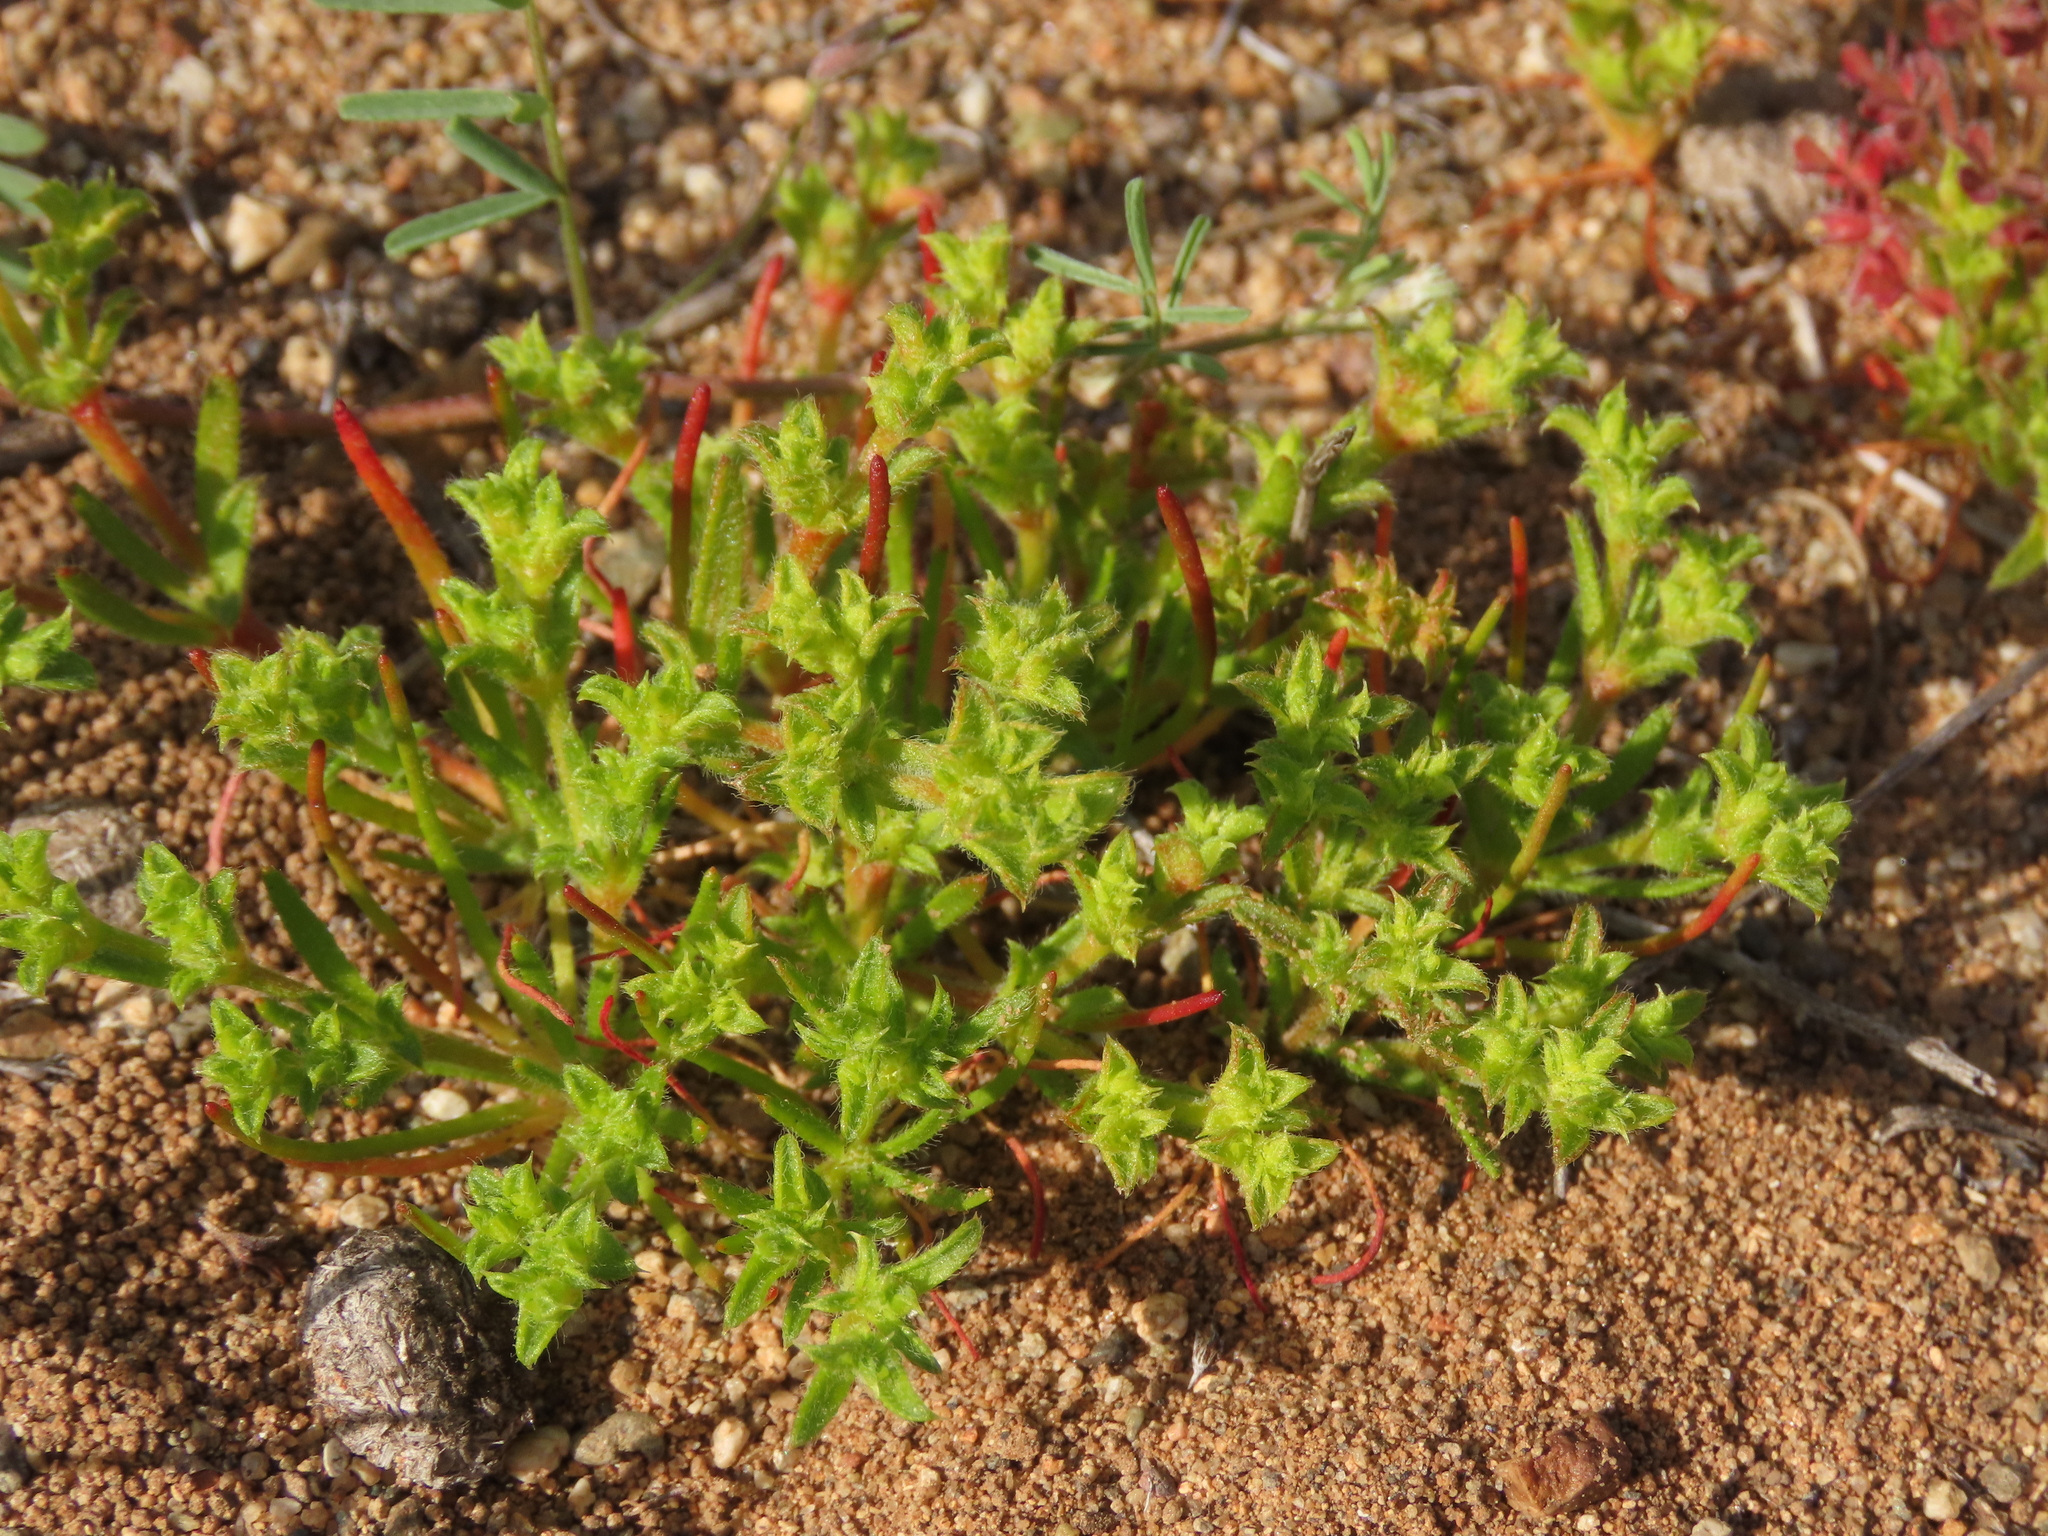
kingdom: Plantae
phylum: Tracheophyta
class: Magnoliopsida
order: Caryophyllales
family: Polygonaceae
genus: Lastarriaea
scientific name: Lastarriaea chilensis
